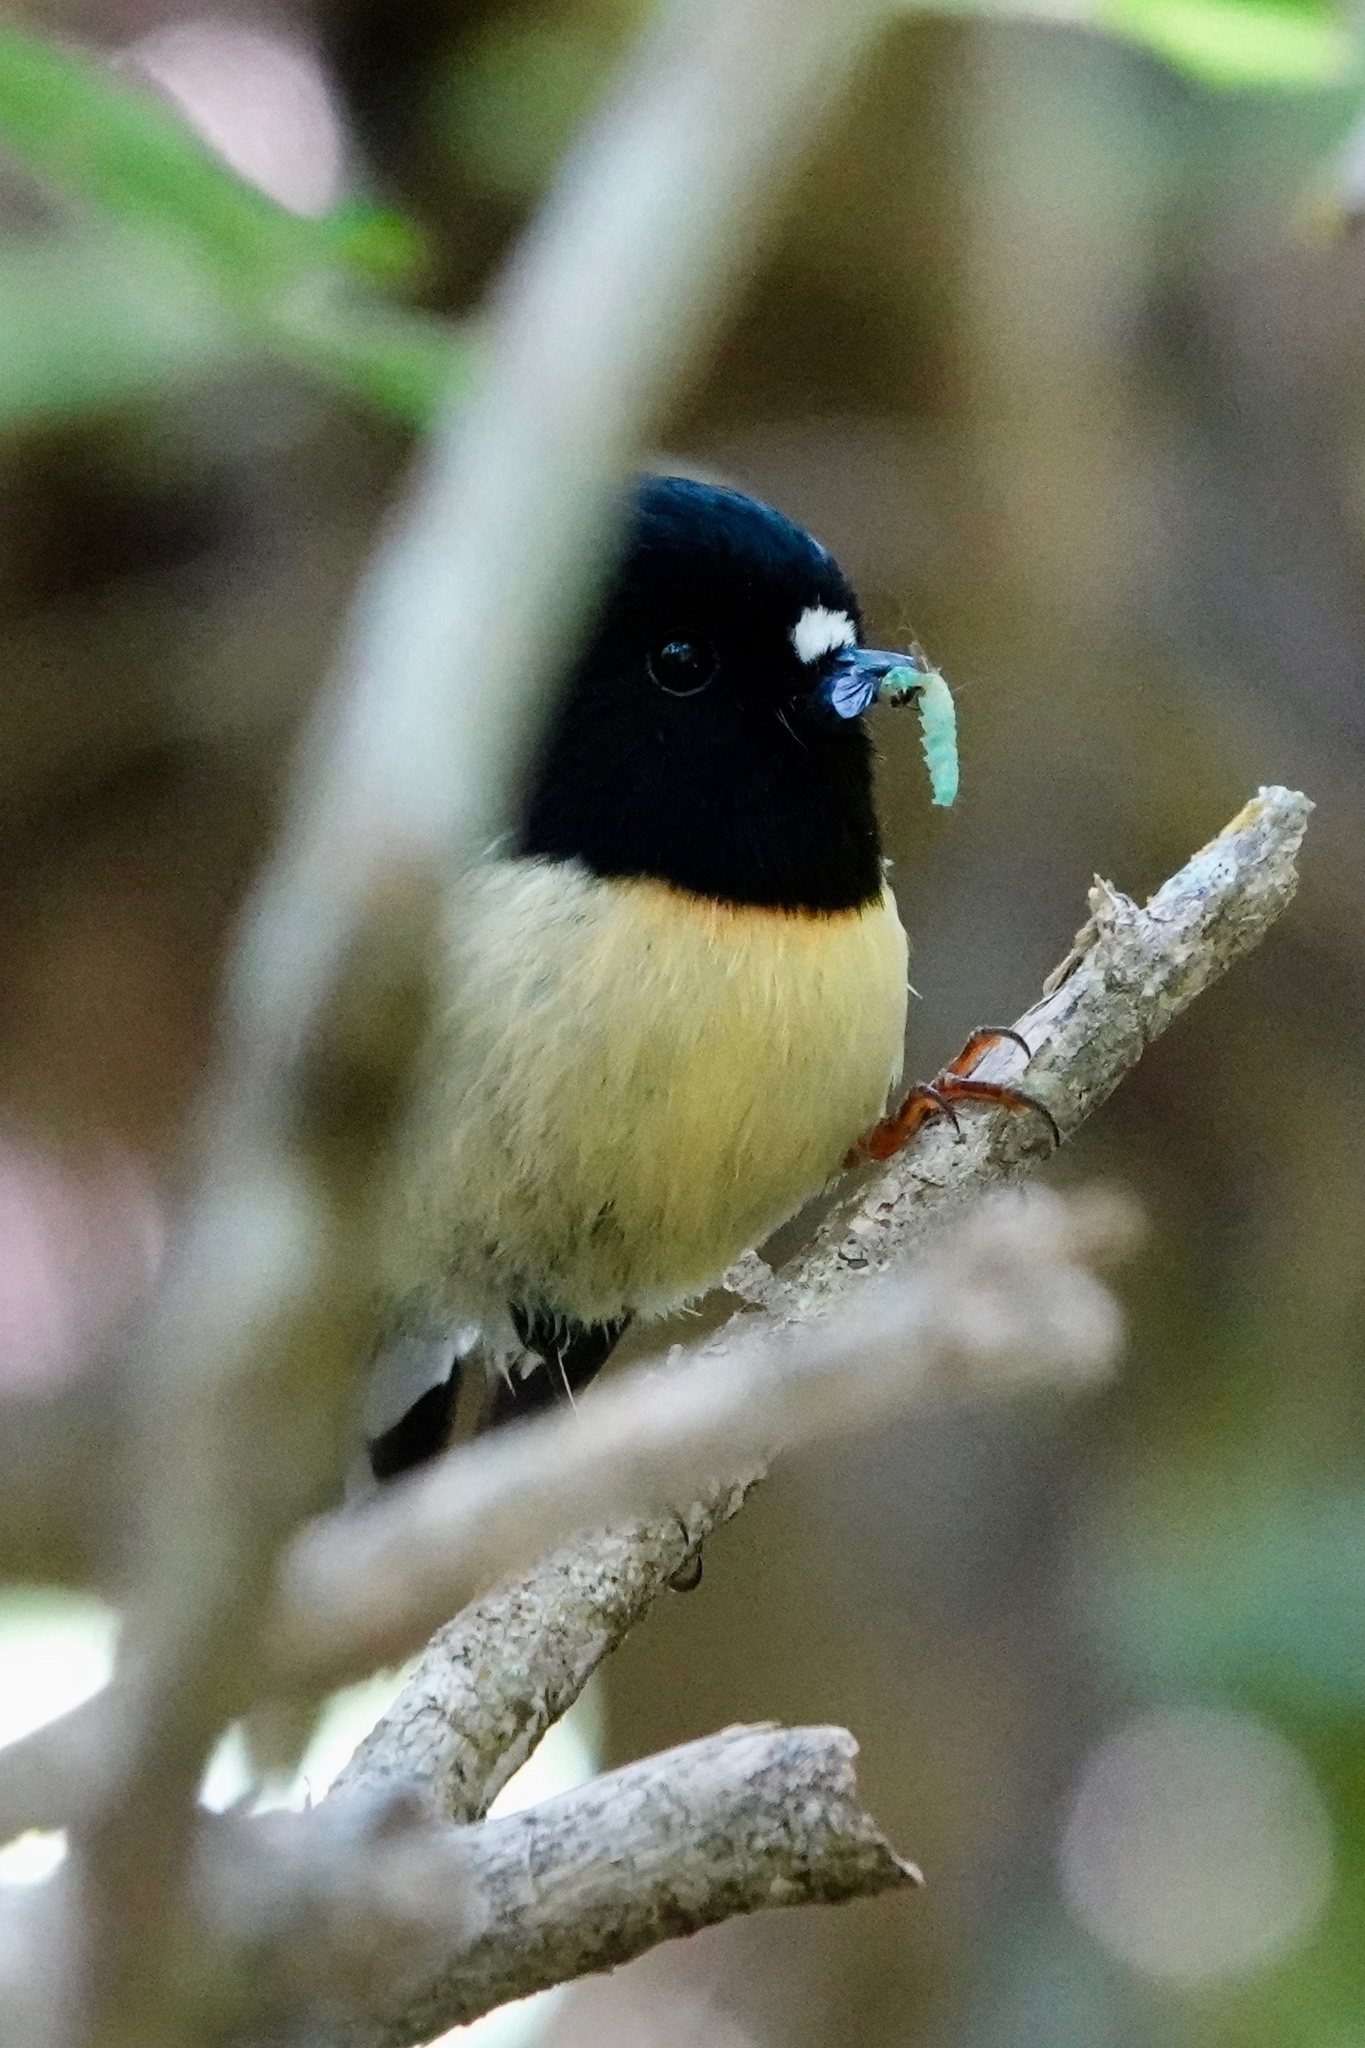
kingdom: Animalia
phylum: Chordata
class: Aves
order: Passeriformes
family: Petroicidae
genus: Petroica
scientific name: Petroica macrocephala
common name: Tomtit
